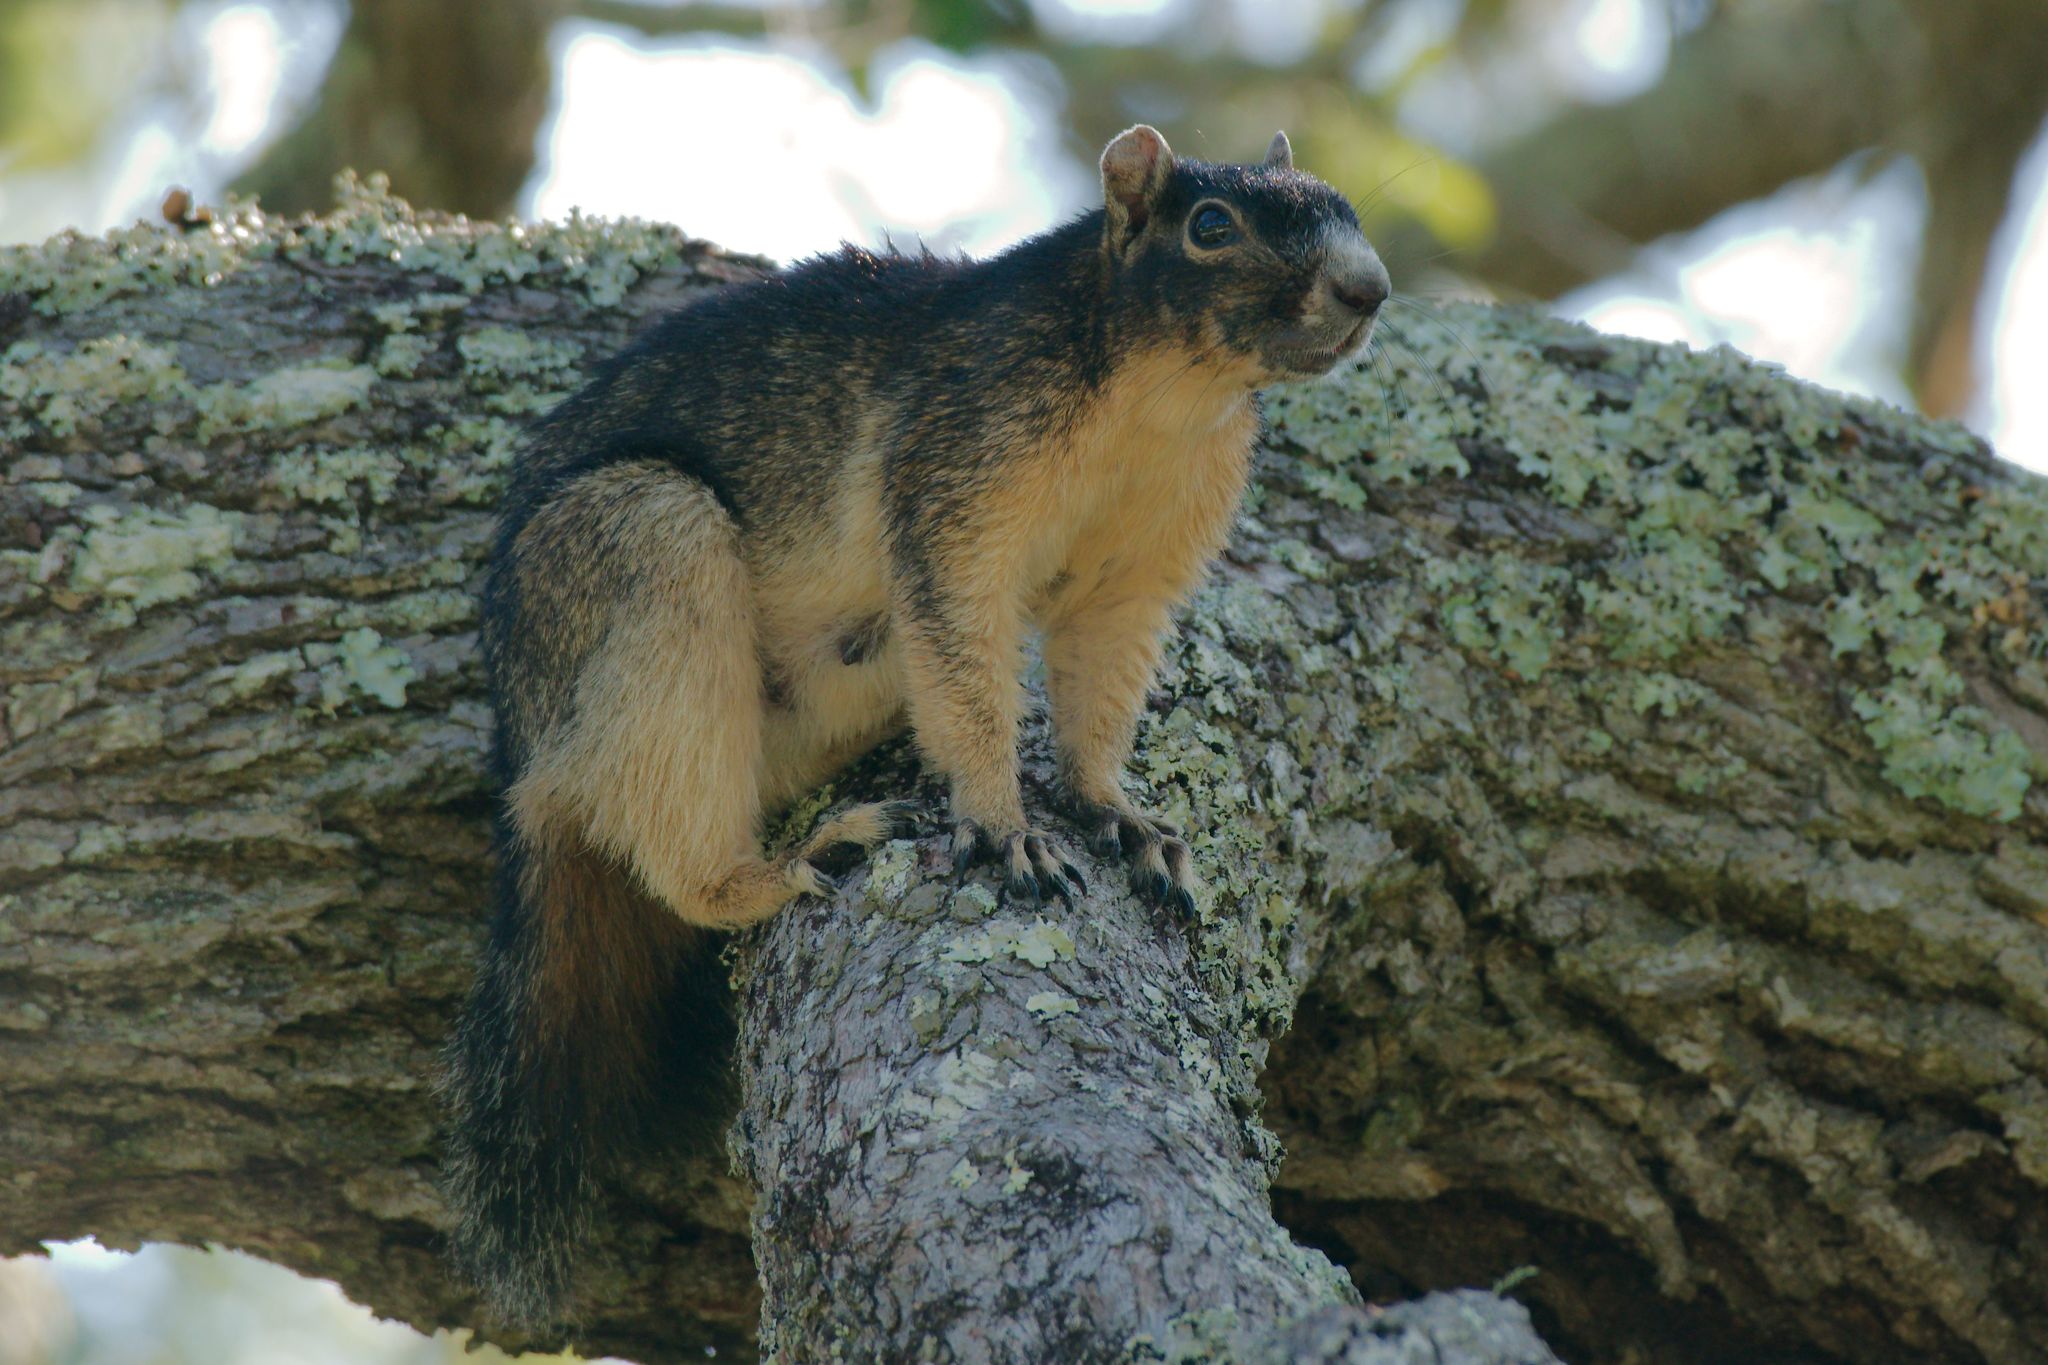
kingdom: Animalia
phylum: Chordata
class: Mammalia
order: Rodentia
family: Sciuridae
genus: Sciurus
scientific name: Sciurus niger
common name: Fox squirrel
